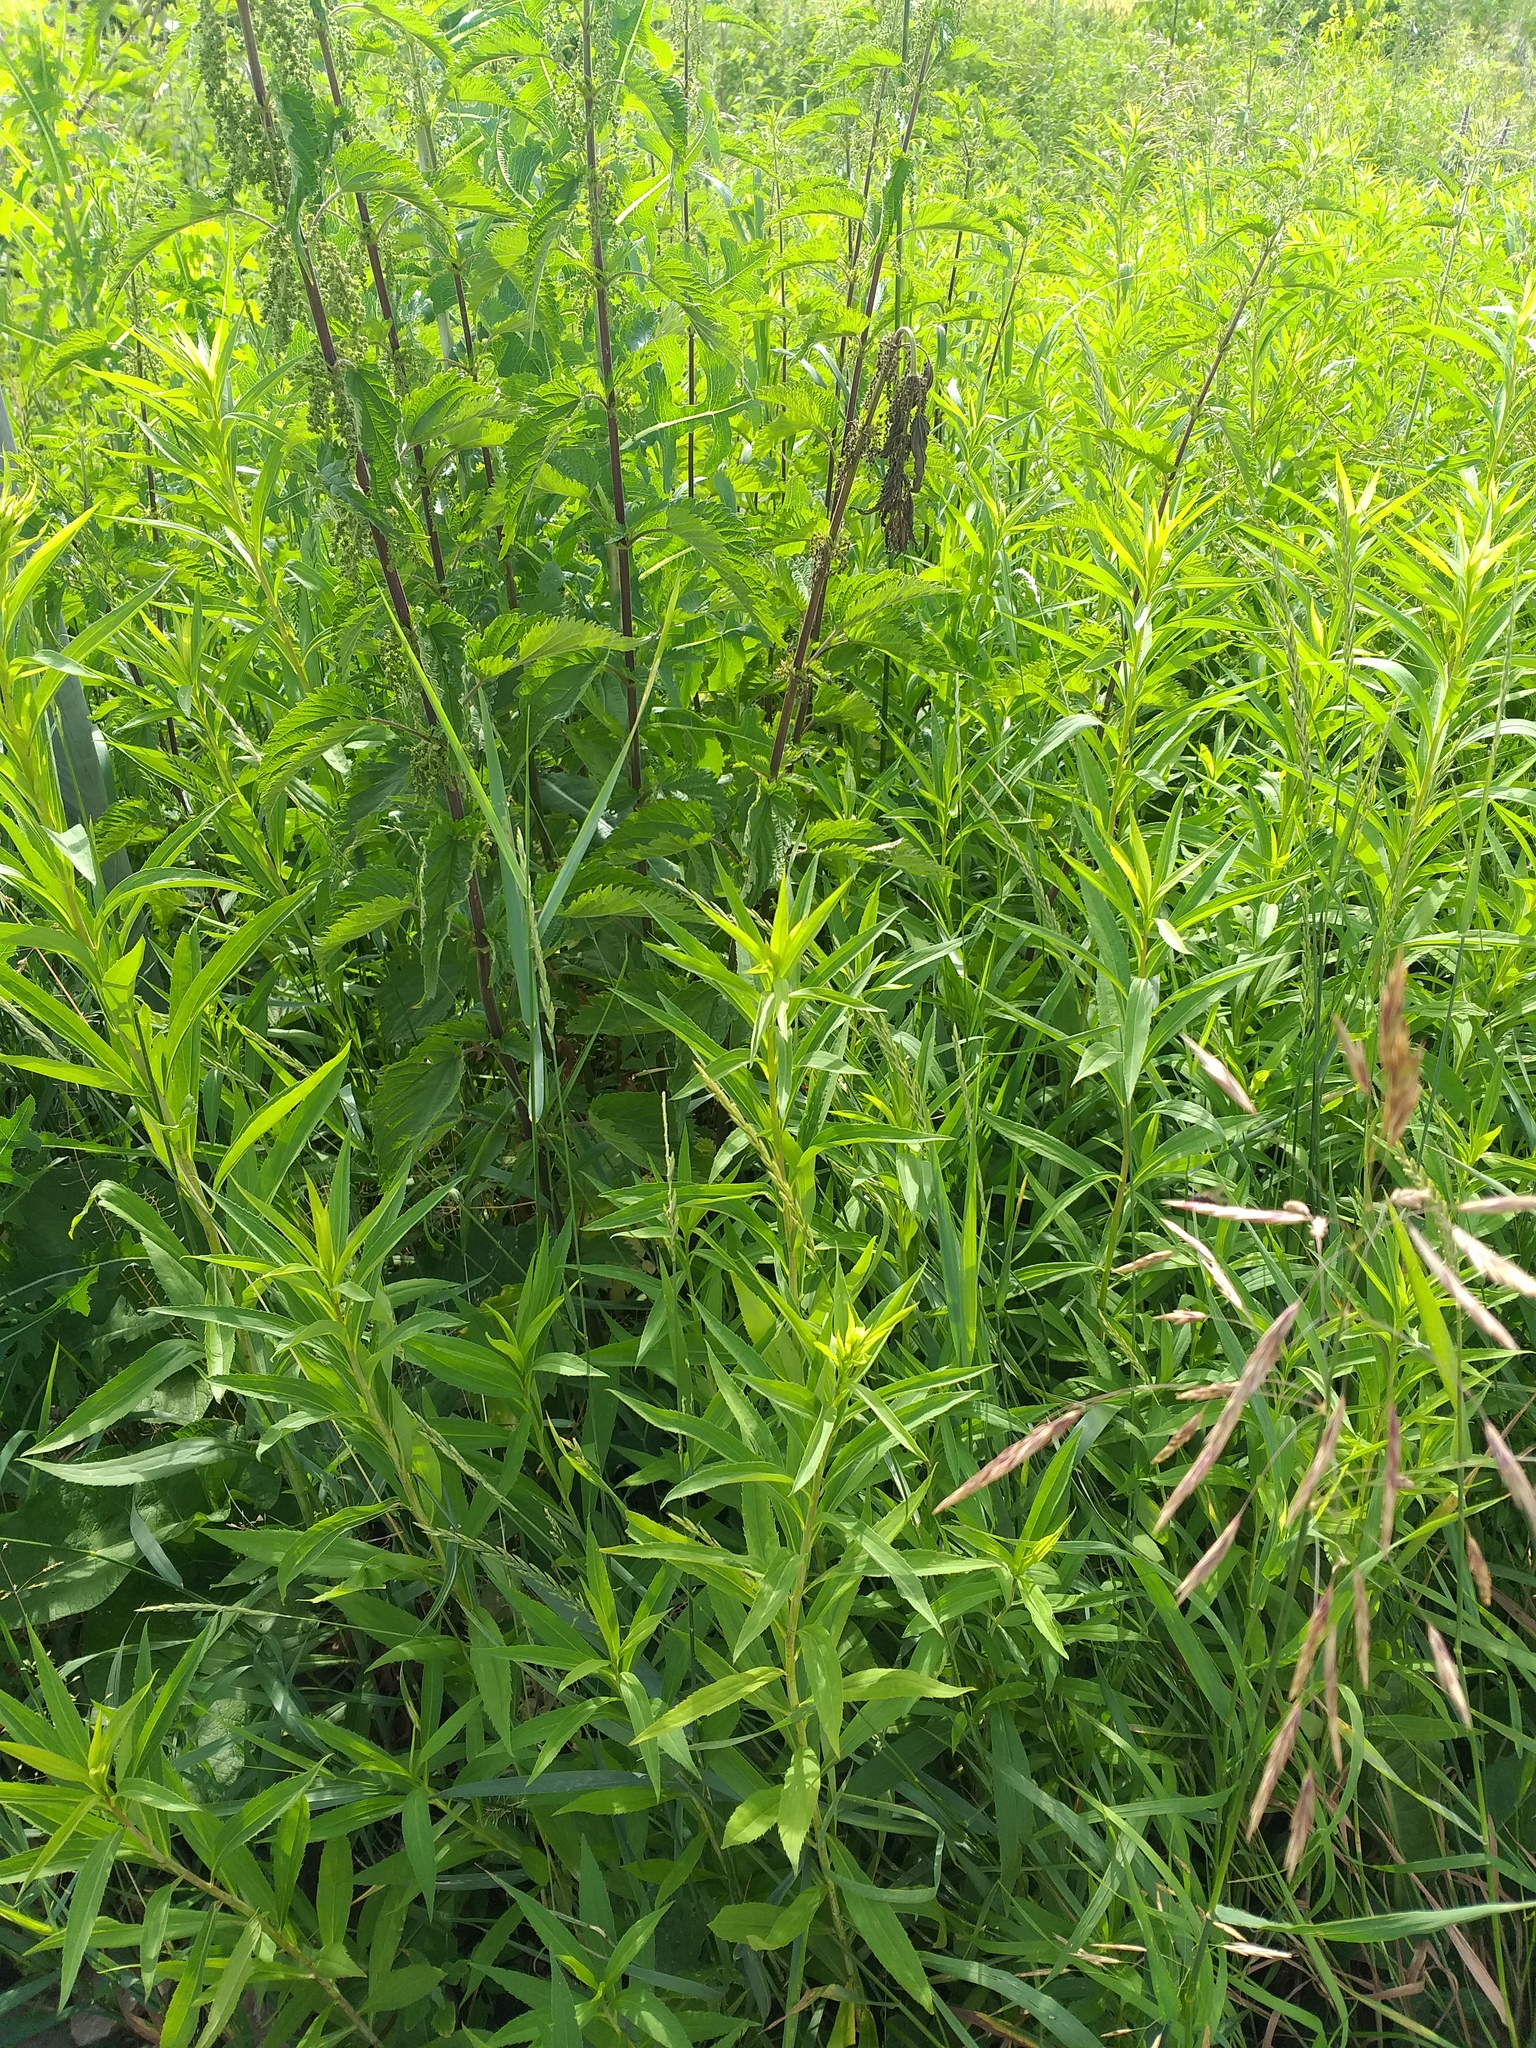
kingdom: Plantae
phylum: Tracheophyta
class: Magnoliopsida
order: Asterales
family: Asteraceae
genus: Solidago
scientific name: Solidago gigantea
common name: Giant goldenrod
